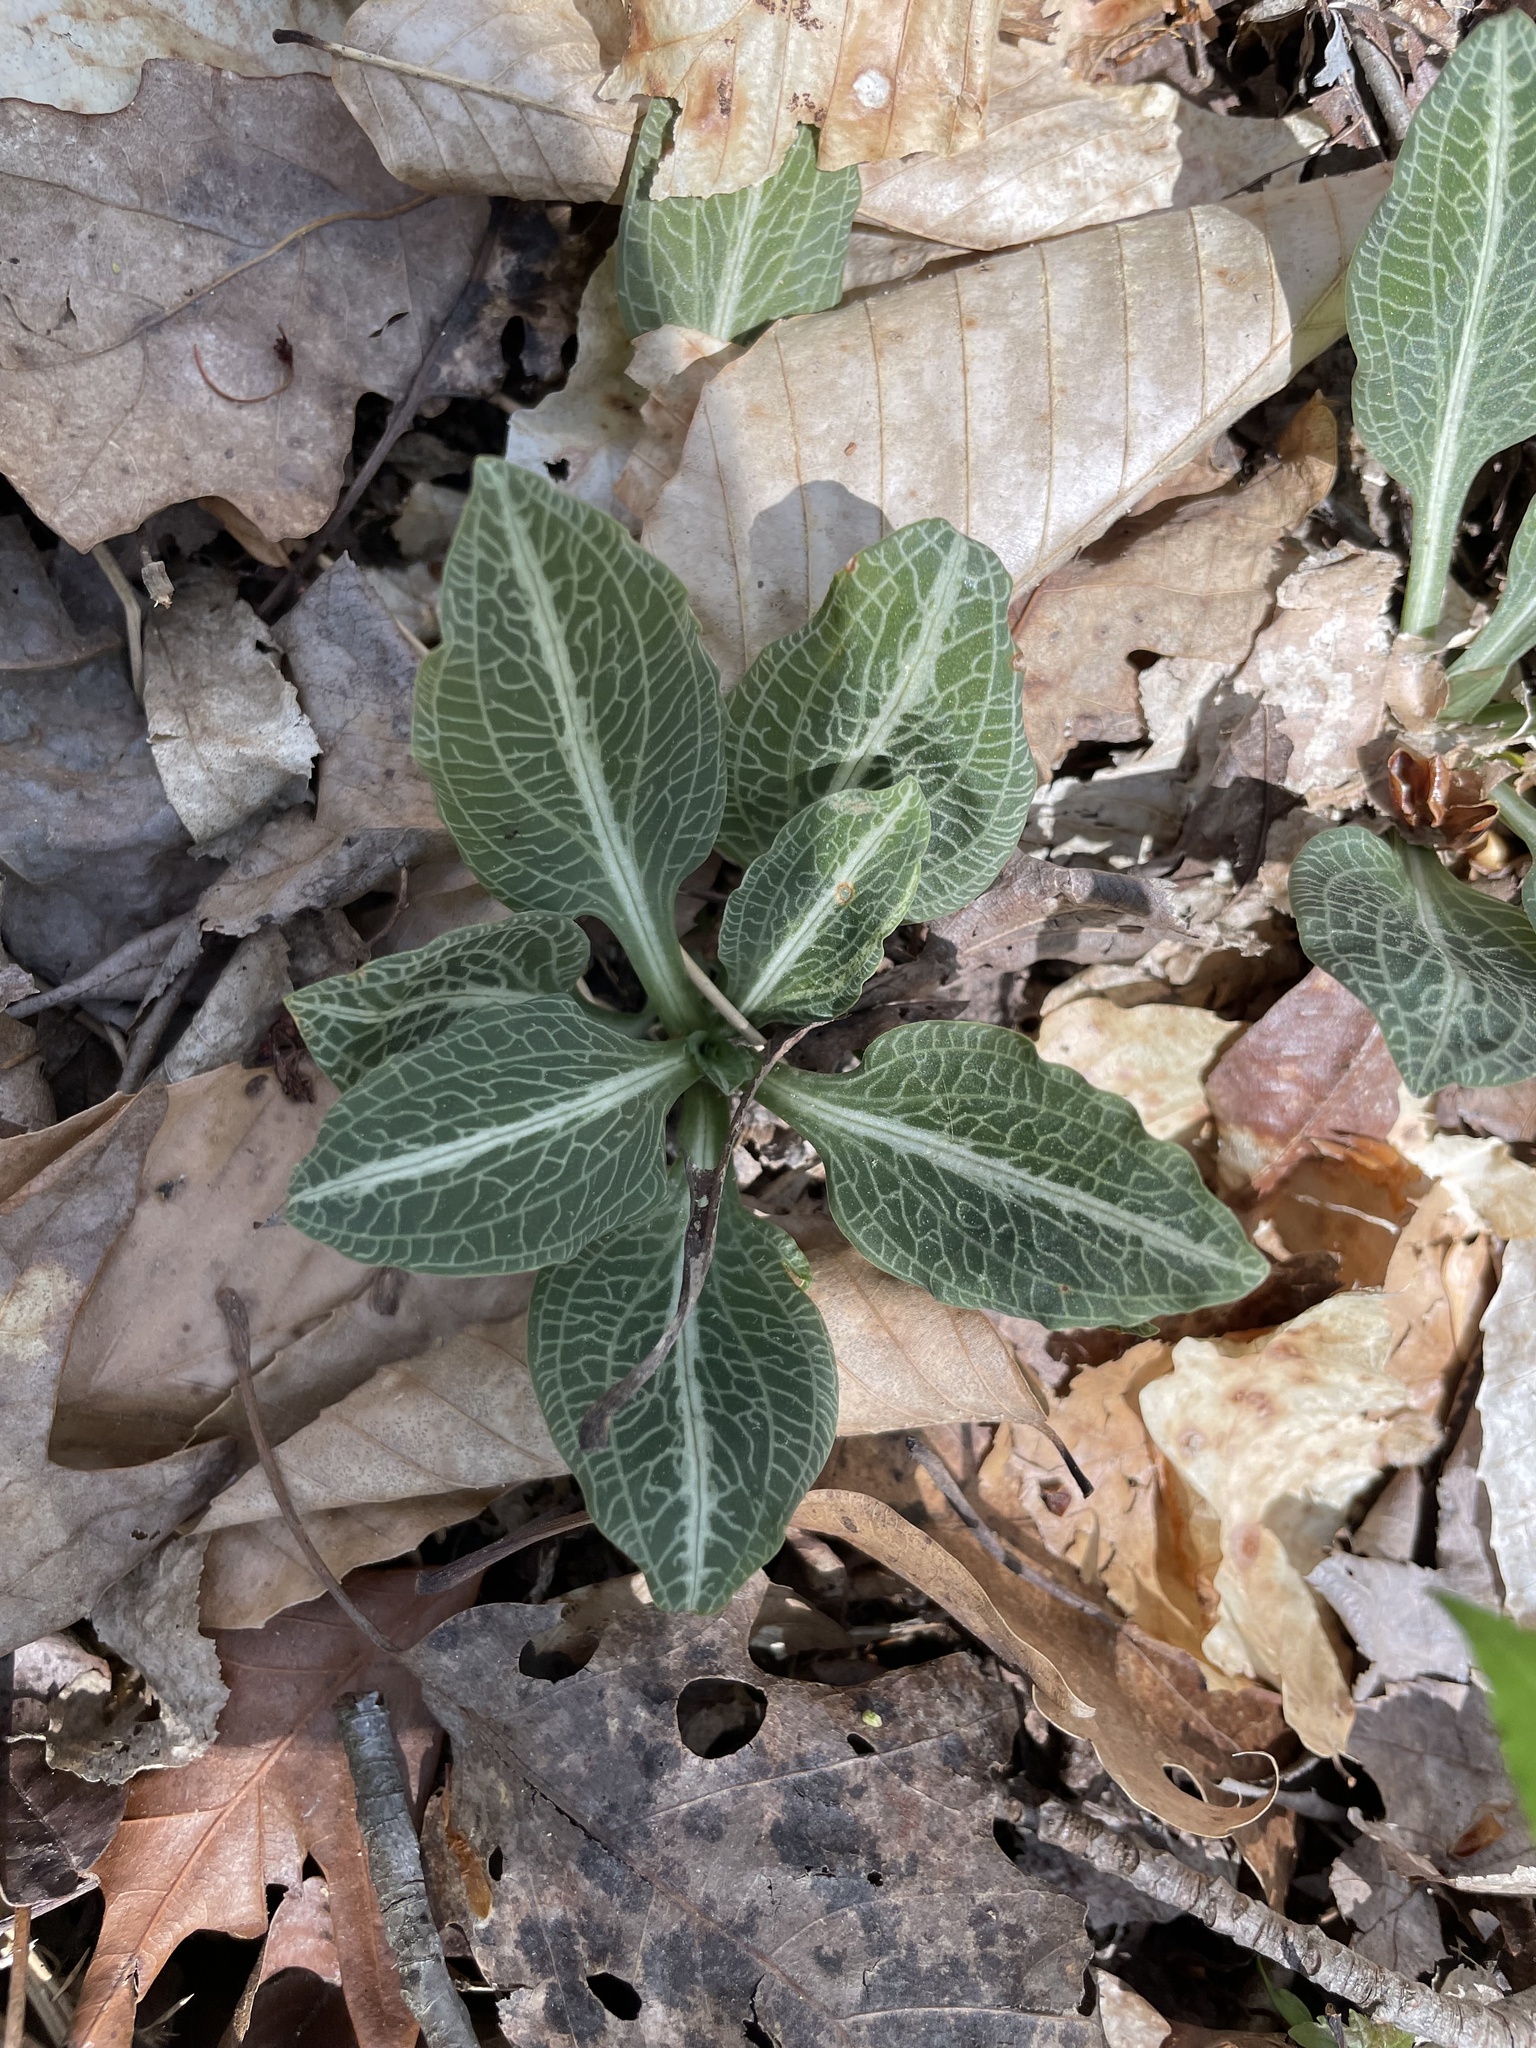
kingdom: Plantae
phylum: Tracheophyta
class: Liliopsida
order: Asparagales
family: Orchidaceae
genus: Goodyera
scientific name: Goodyera pubescens
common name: Downy rattlesnake-plantain
